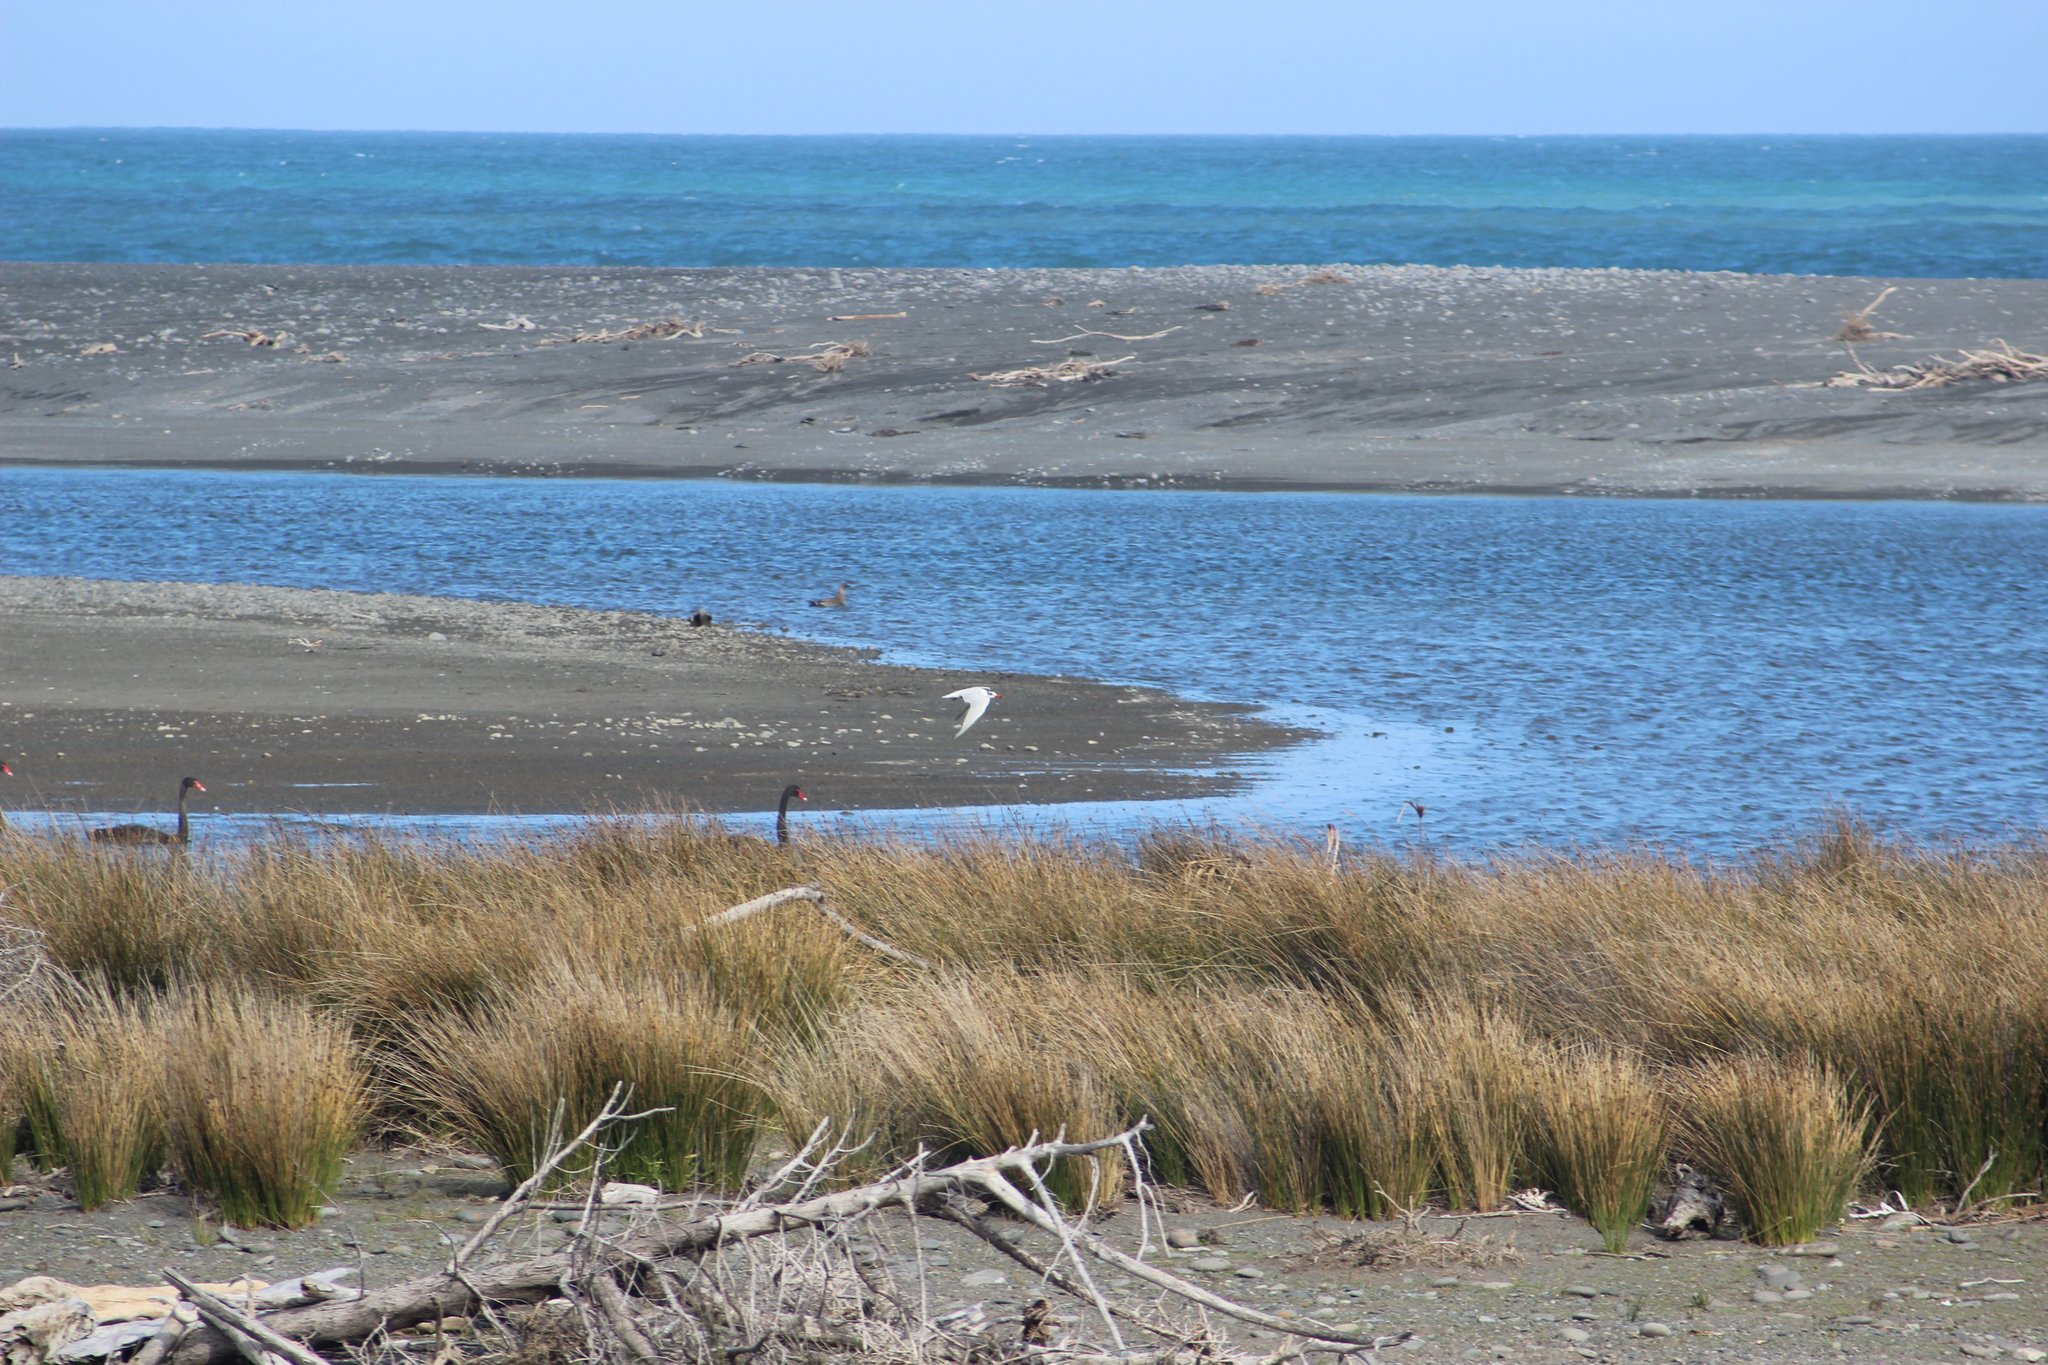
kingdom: Animalia
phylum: Chordata
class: Aves
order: Anseriformes
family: Anatidae
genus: Cygnus
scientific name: Cygnus atratus
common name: Black swan
